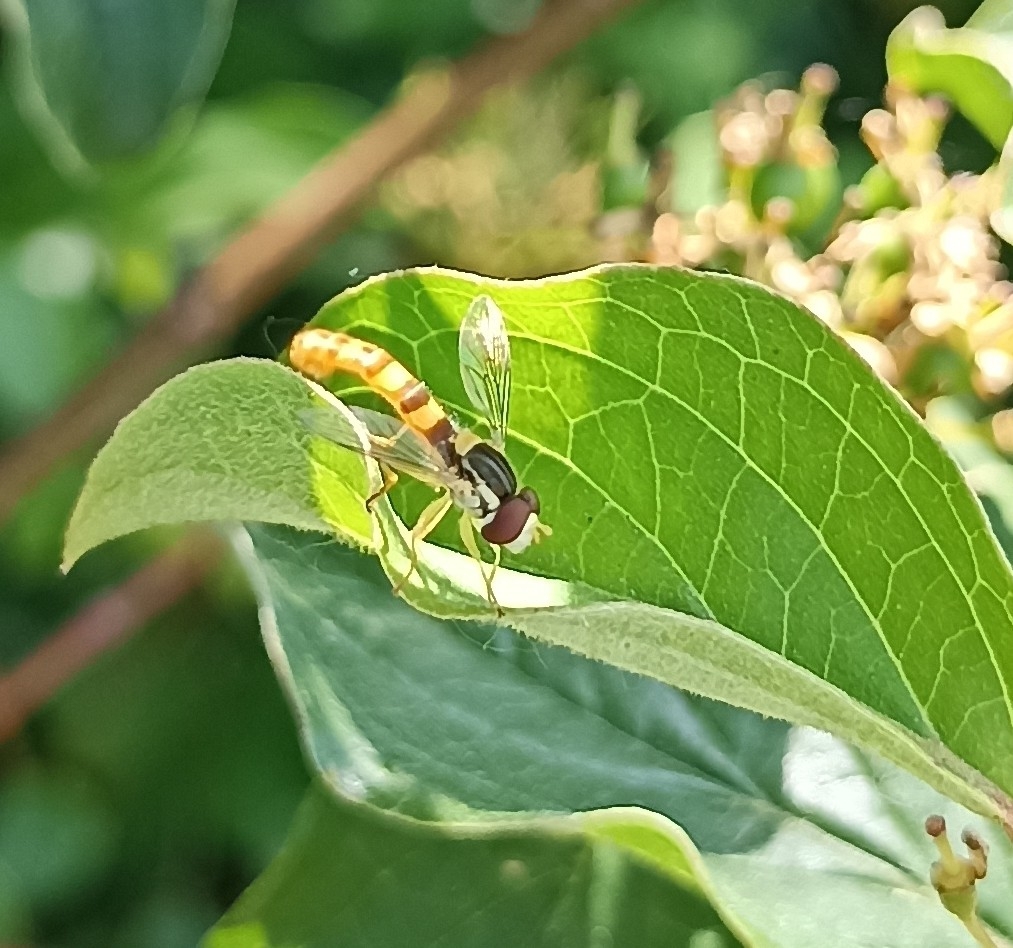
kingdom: Animalia
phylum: Arthropoda
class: Insecta
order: Diptera
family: Syrphidae
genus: Sphaerophoria
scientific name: Sphaerophoria scripta
